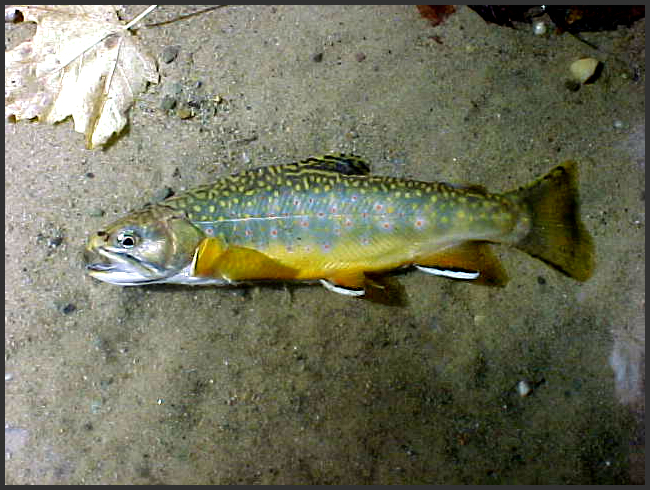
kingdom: Animalia
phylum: Chordata
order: Salmoniformes
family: Salmonidae
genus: Salvelinus
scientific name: Salvelinus fontinalis
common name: Brook trout
